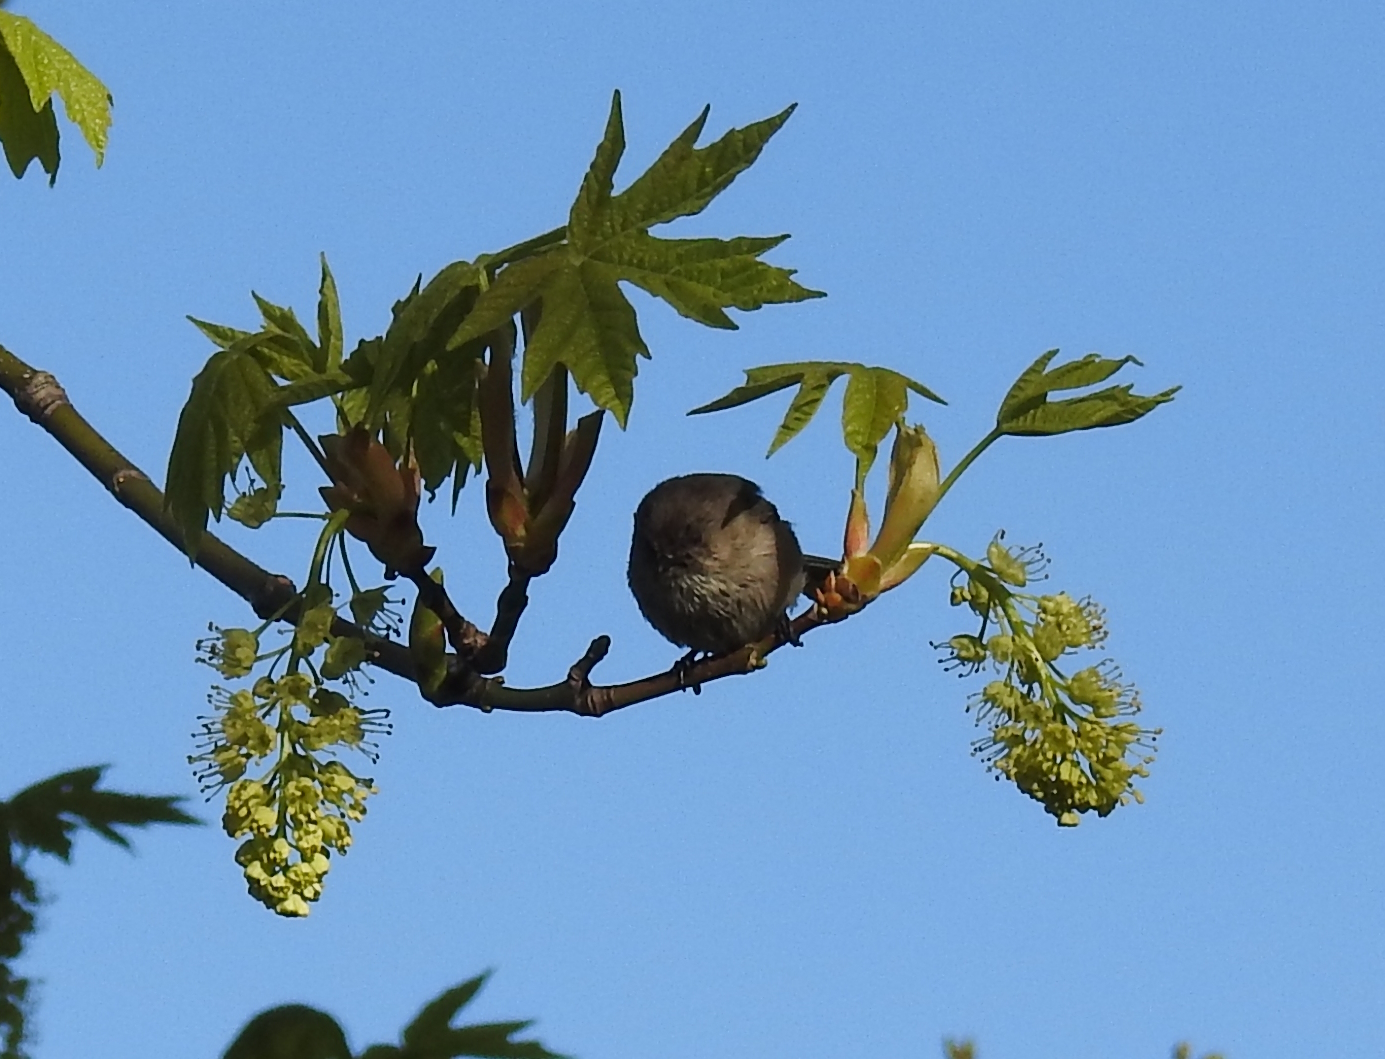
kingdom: Animalia
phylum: Chordata
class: Aves
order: Passeriformes
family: Aegithalidae
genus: Psaltriparus
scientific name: Psaltriparus minimus
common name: American bushtit
